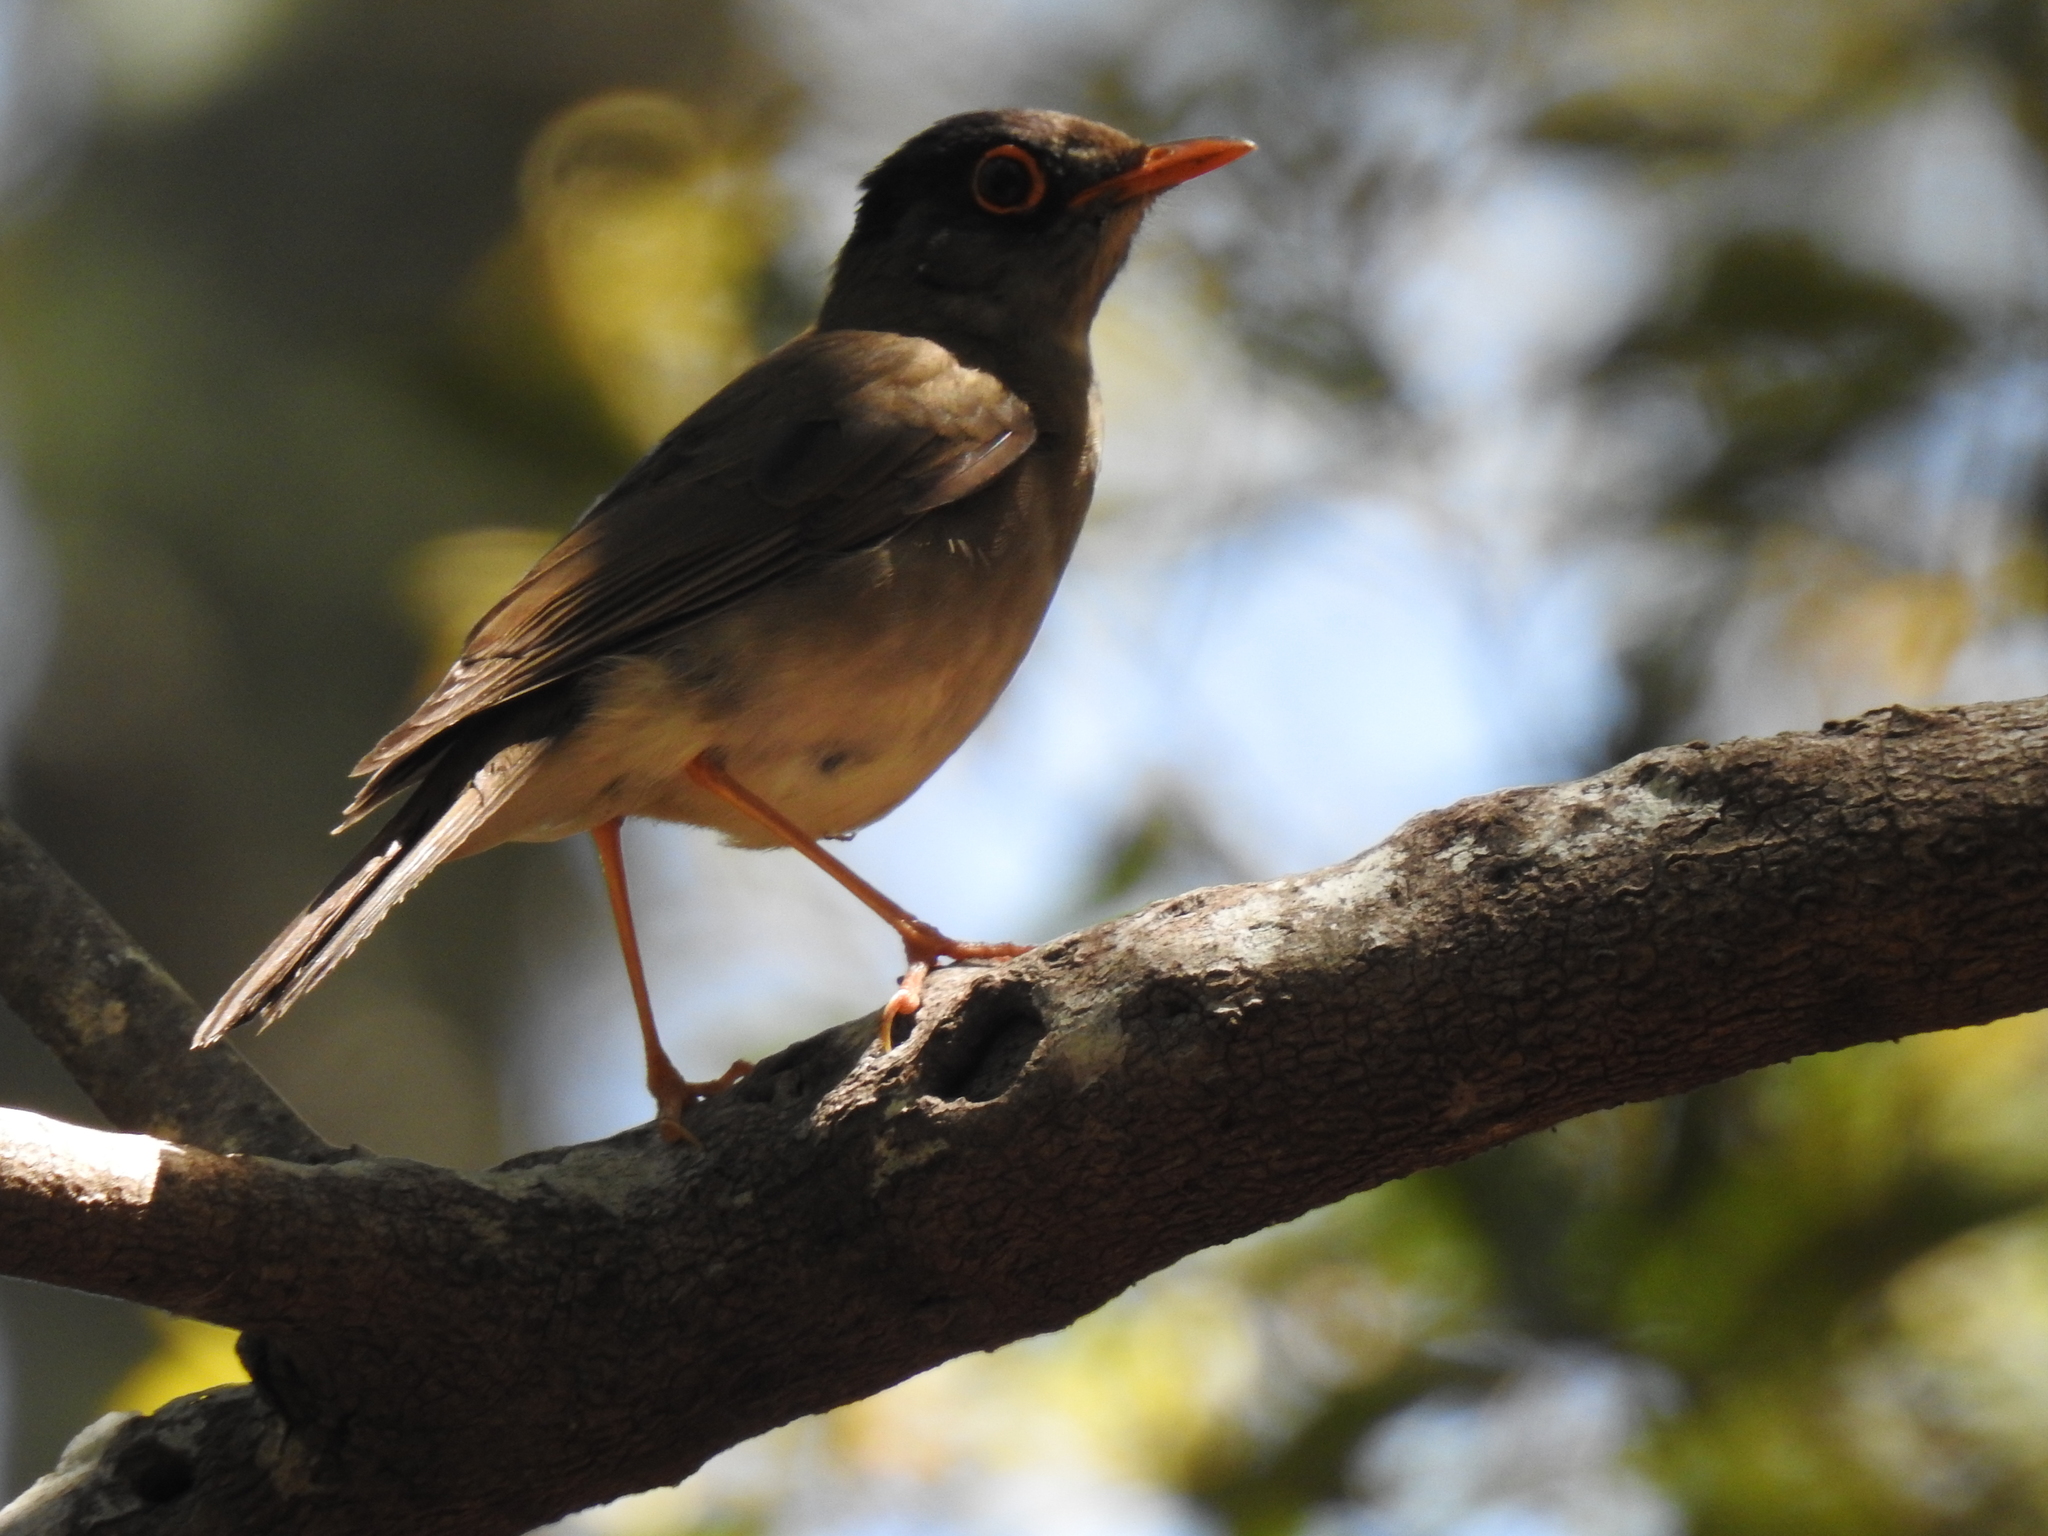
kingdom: Animalia
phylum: Chordata
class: Aves
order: Passeriformes
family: Turdidae
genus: Catharus
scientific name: Catharus mexicanus
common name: Black-headed nightingale-thrush
